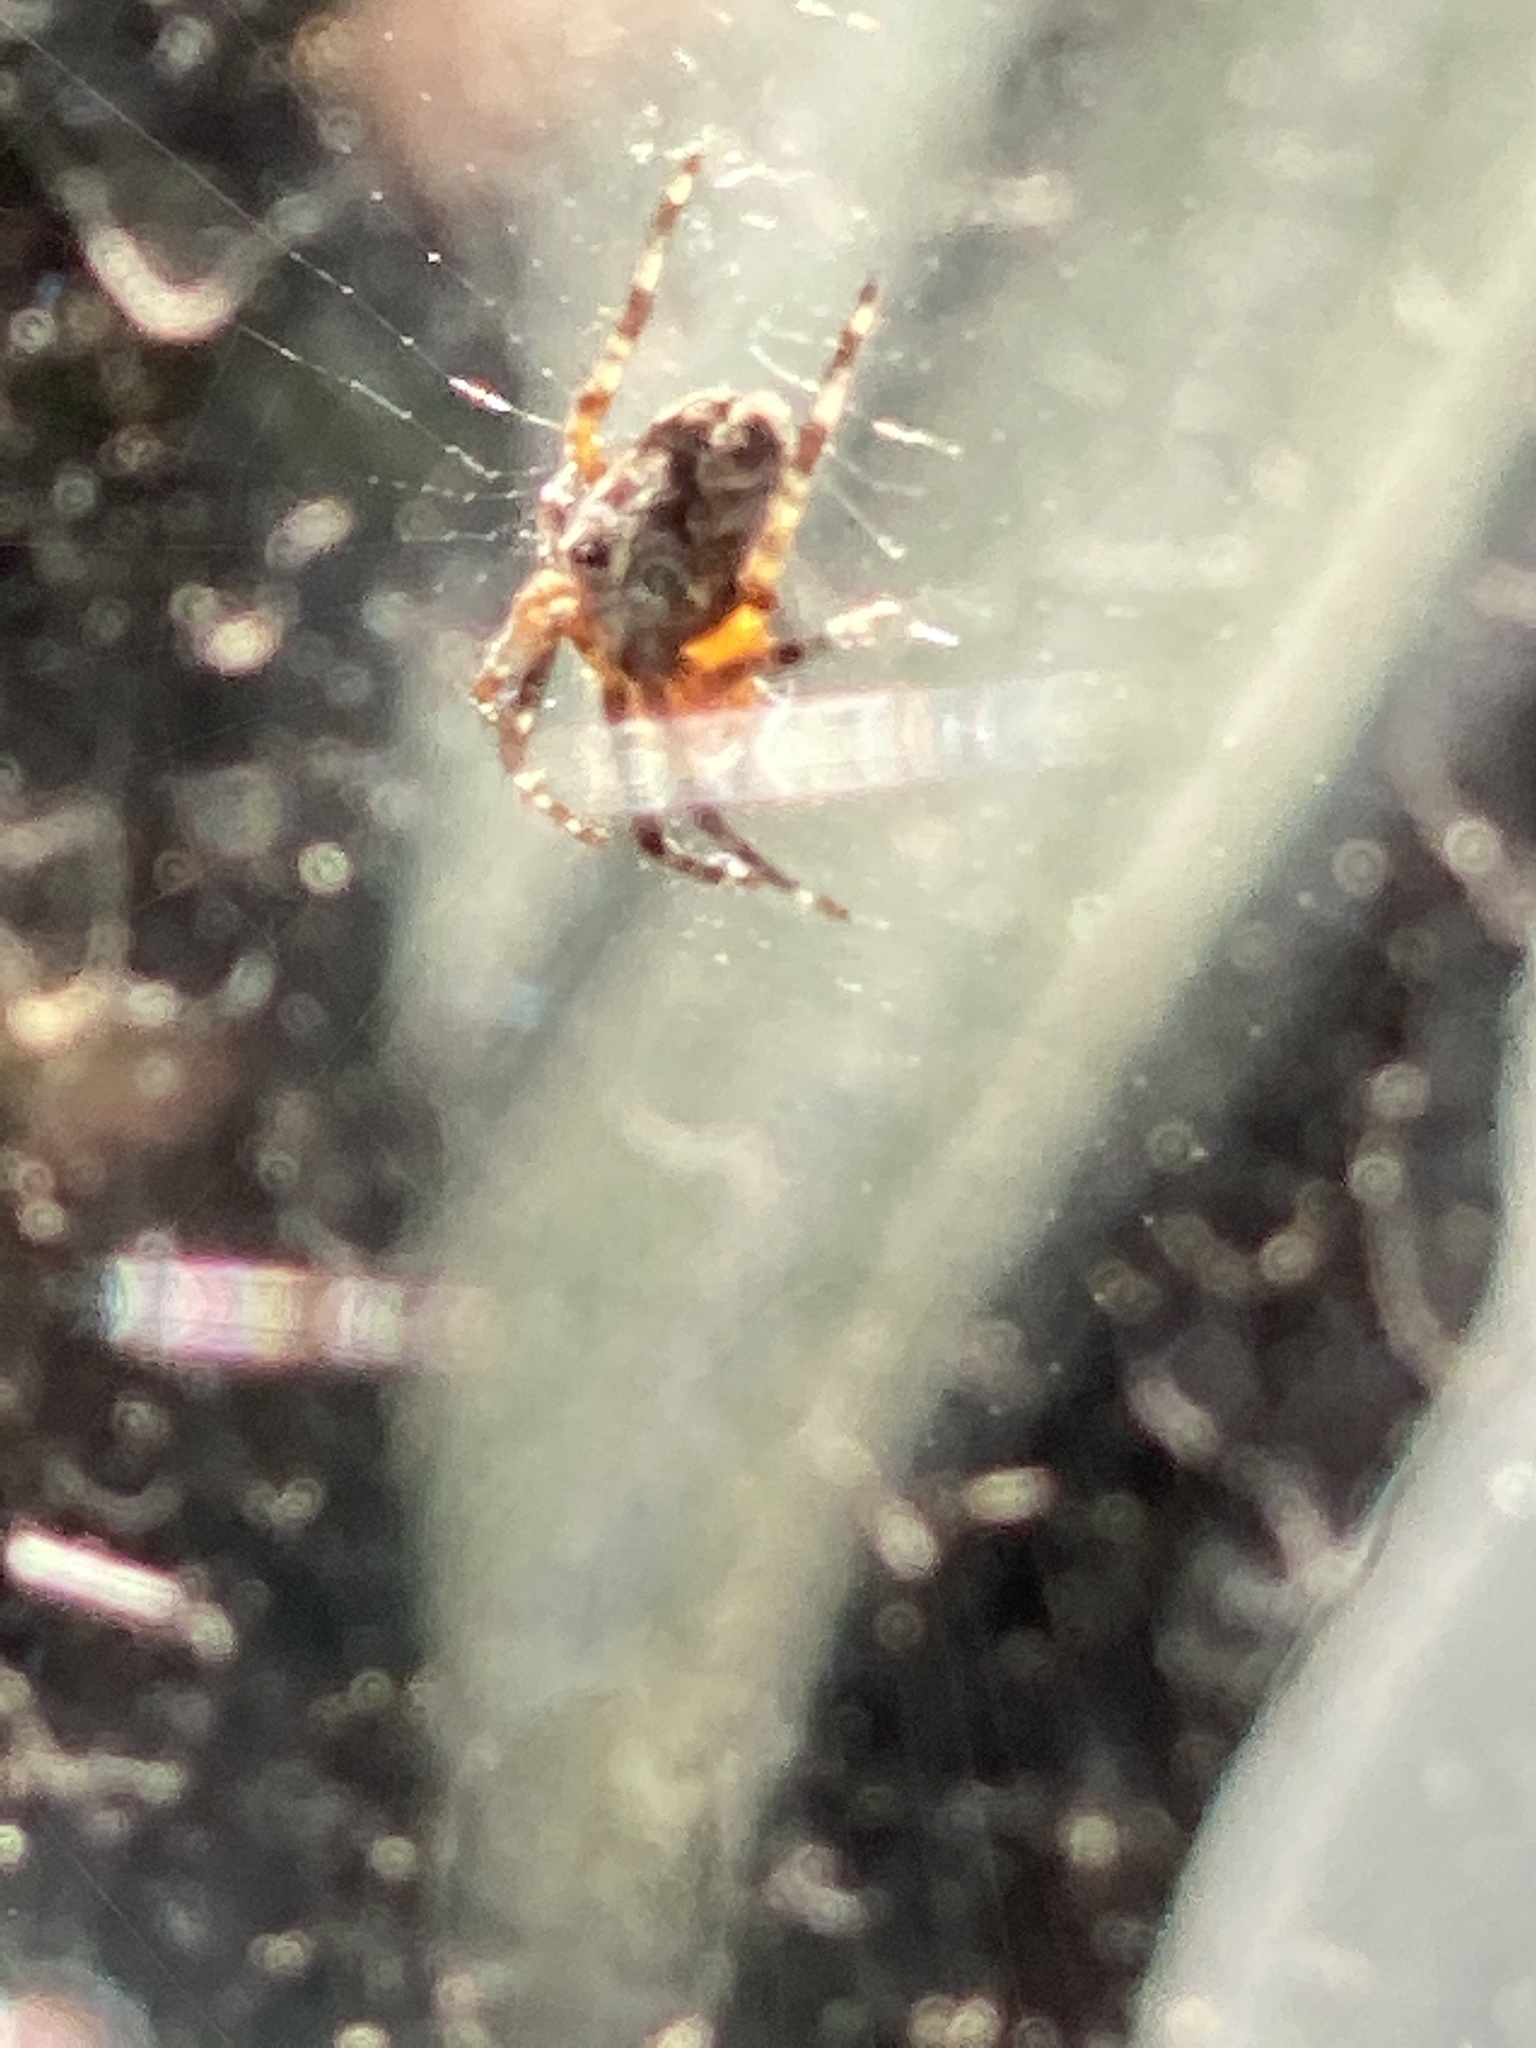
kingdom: Animalia
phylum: Arthropoda
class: Arachnida
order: Araneae
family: Araneidae
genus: Araneus
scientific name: Araneus diadematus
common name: Cross orbweaver
